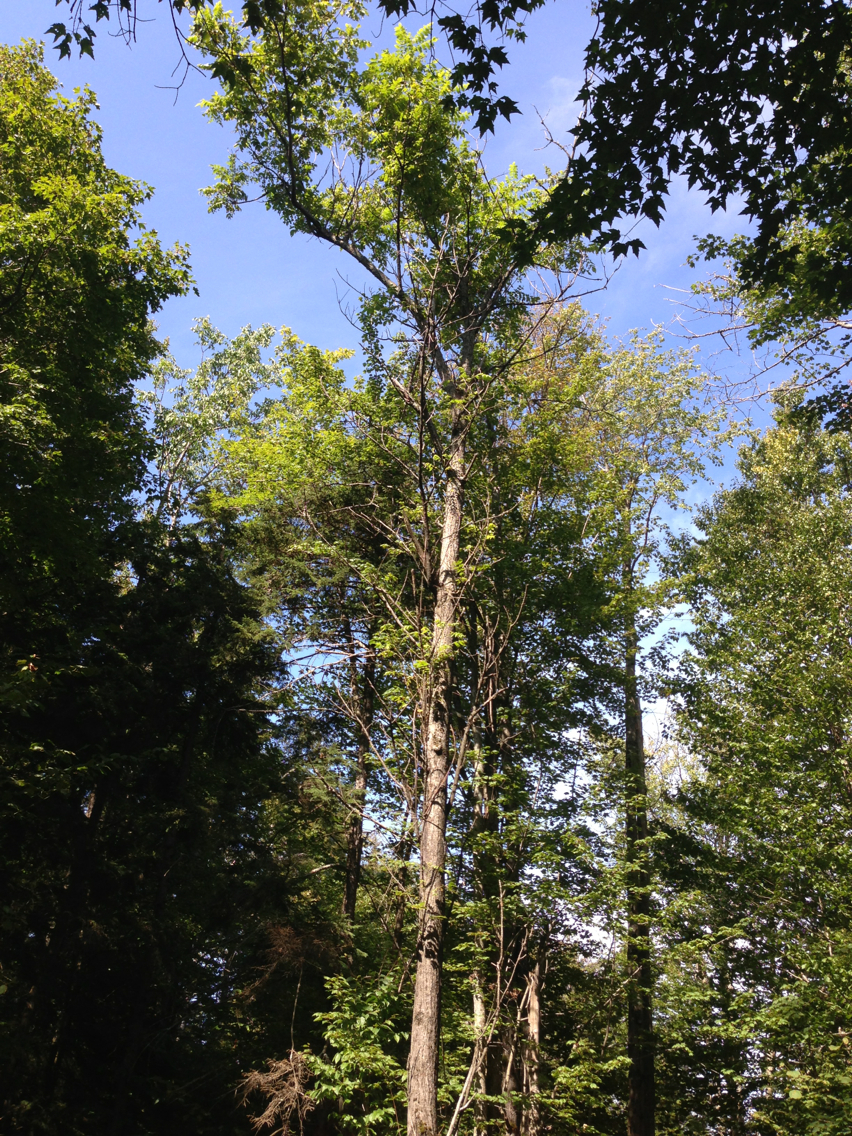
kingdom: Plantae
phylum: Tracheophyta
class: Magnoliopsida
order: Fagales
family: Juglandaceae
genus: Juglans
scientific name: Juglans cinerea
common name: Butternut
